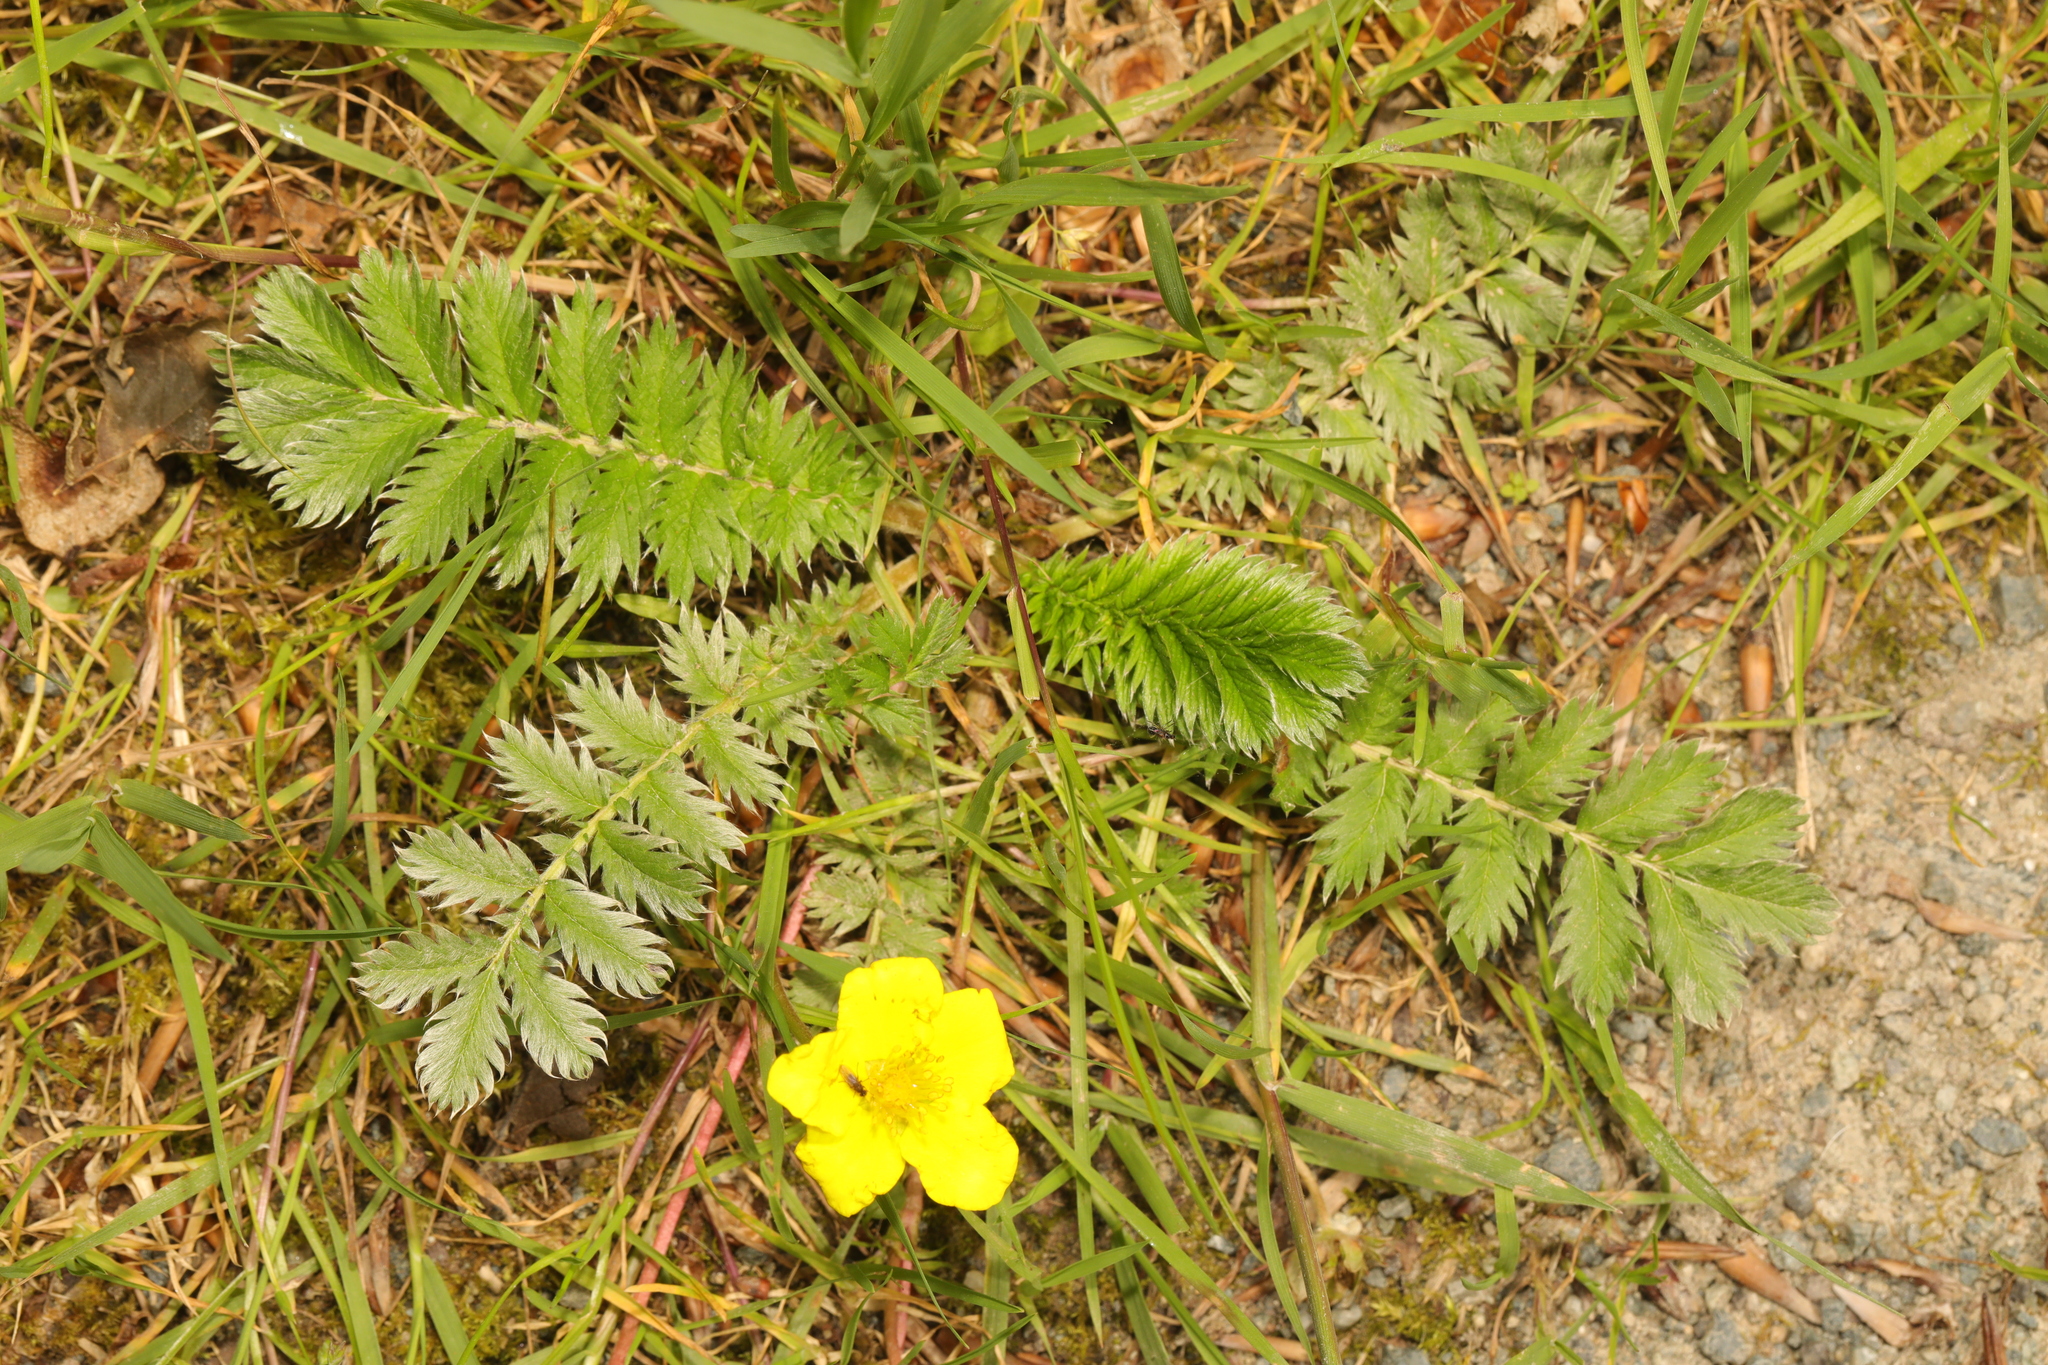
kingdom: Plantae
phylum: Tracheophyta
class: Magnoliopsida
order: Rosales
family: Rosaceae
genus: Argentina
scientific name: Argentina anserina
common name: Common silverweed
